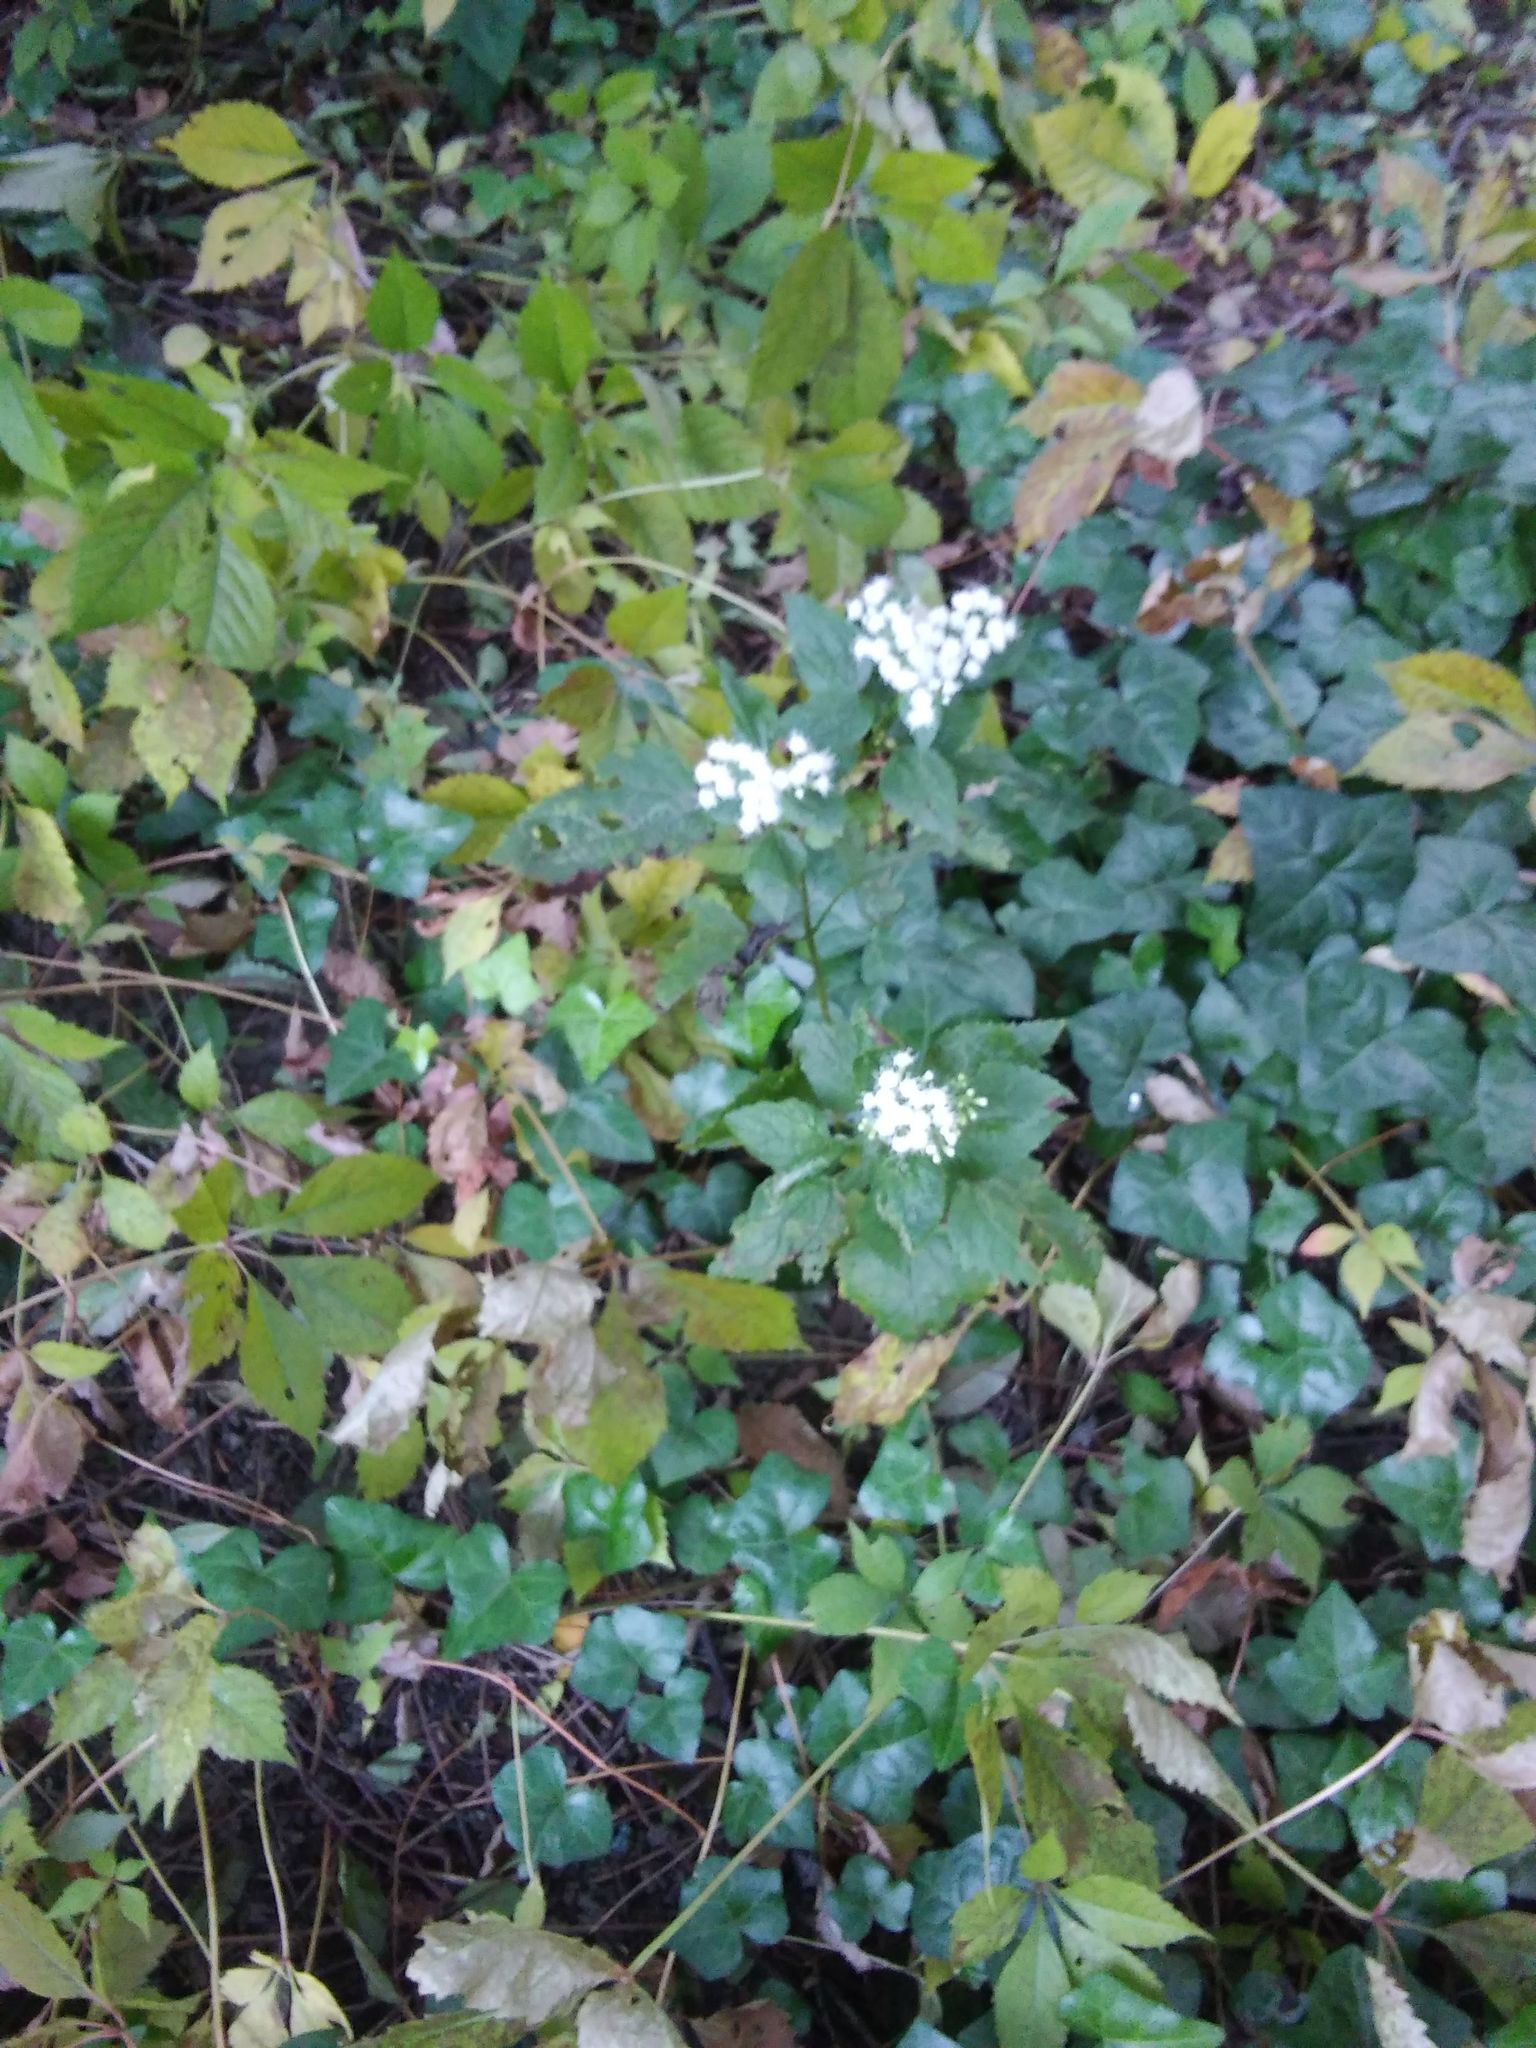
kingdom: Plantae
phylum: Tracheophyta
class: Magnoliopsida
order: Asterales
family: Asteraceae
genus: Ageratina
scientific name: Ageratina altissima
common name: White snakeroot
